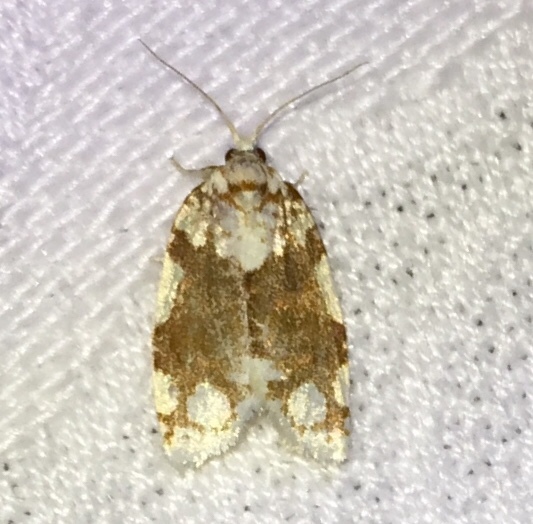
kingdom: Animalia
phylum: Arthropoda
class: Insecta
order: Lepidoptera
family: Tortricidae
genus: Argyrotaenia
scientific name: Argyrotaenia alisellana
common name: White-spotted leafroller moth
